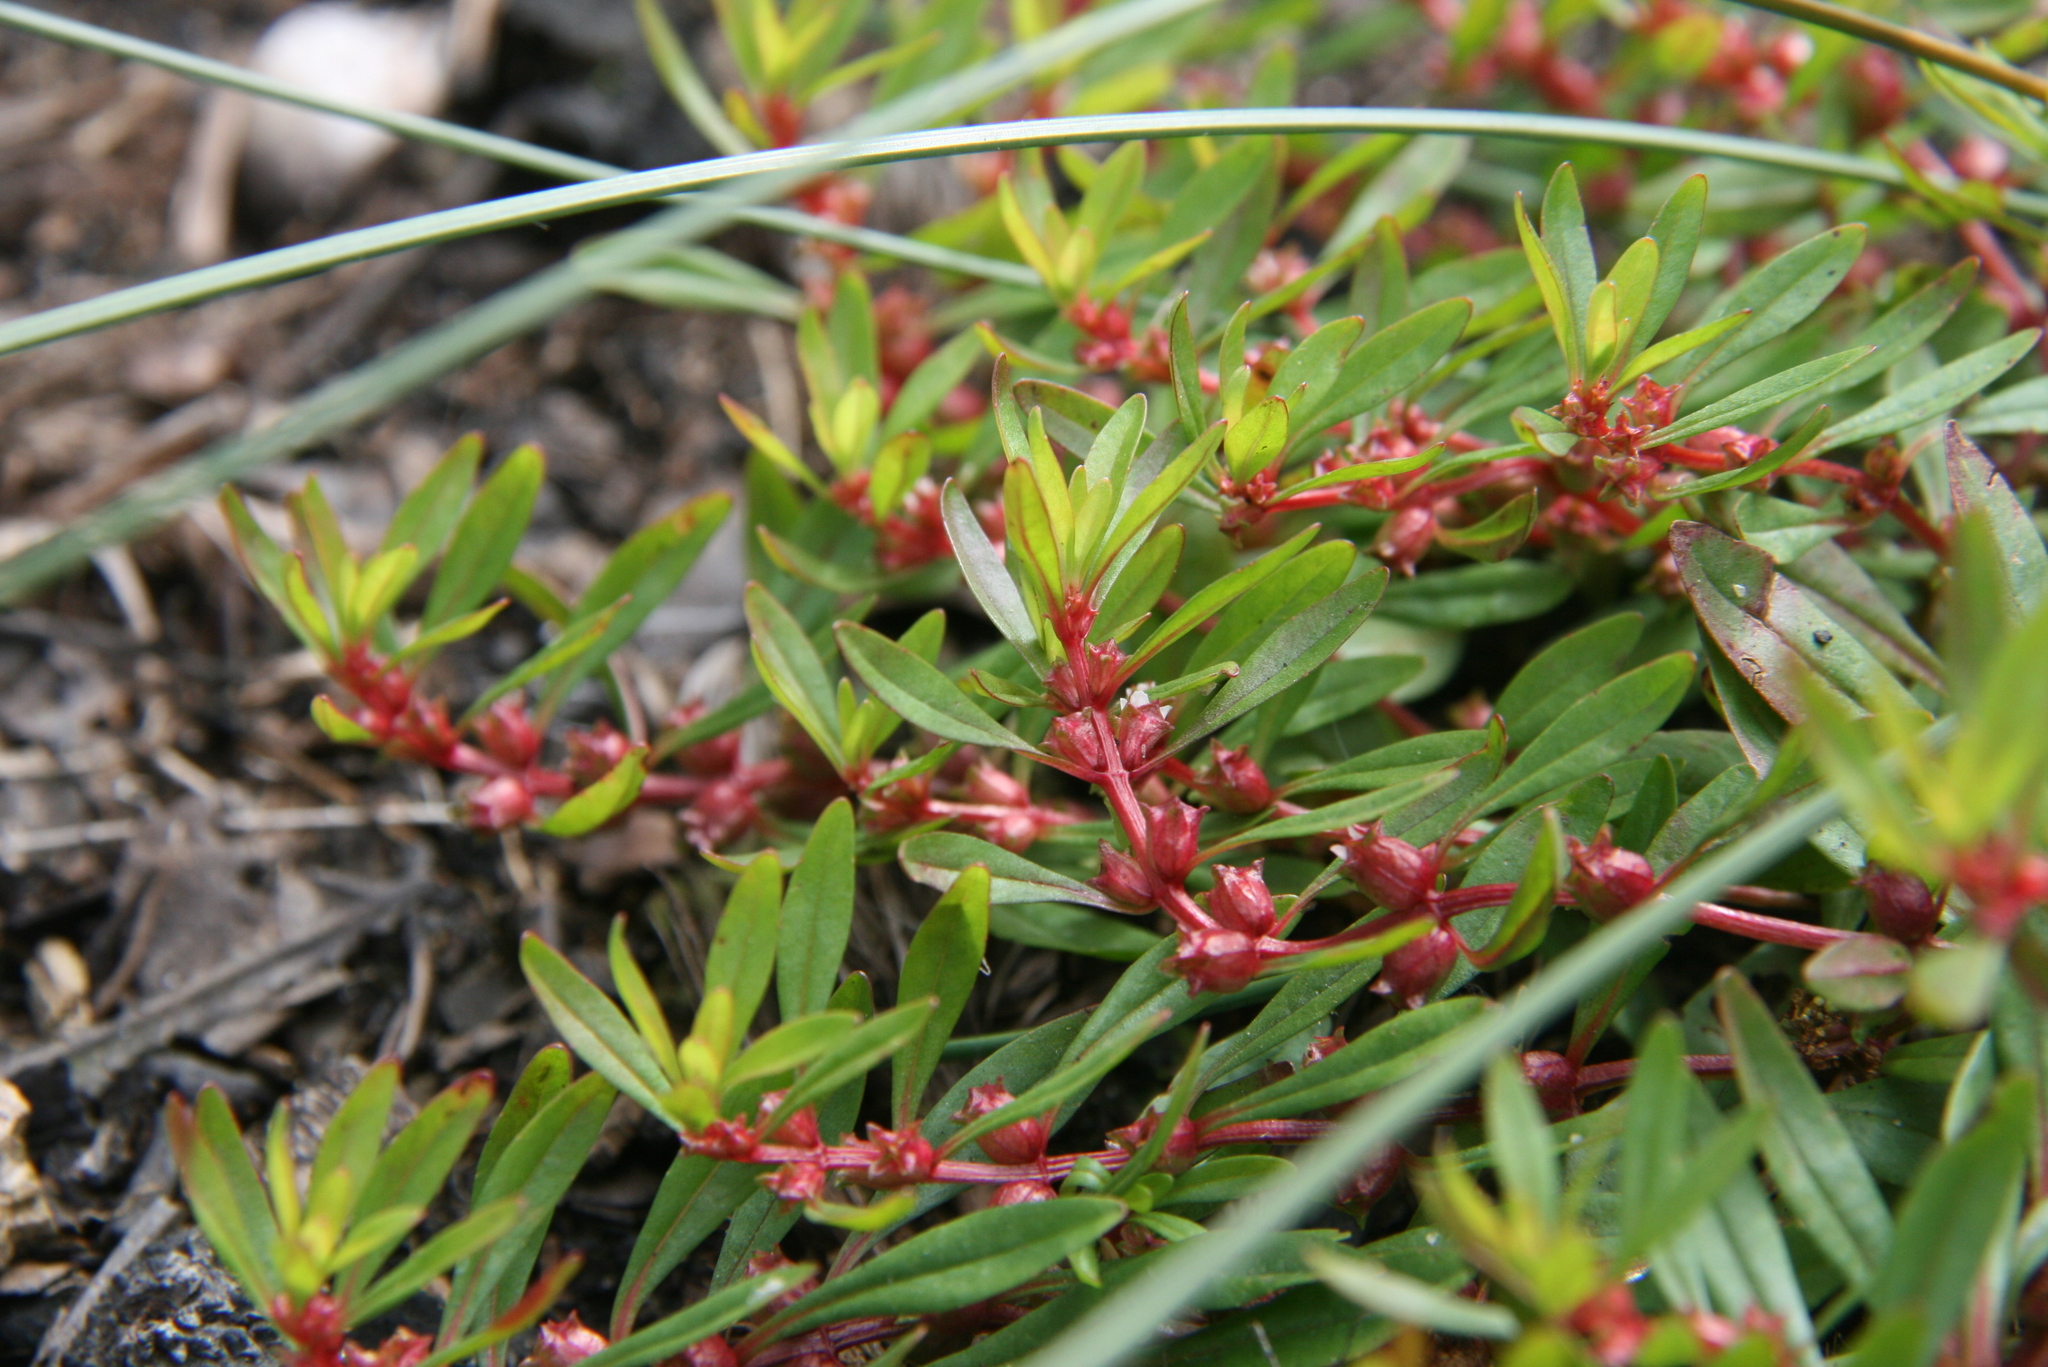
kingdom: Plantae
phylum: Tracheophyta
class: Magnoliopsida
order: Myrtales
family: Lythraceae
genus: Rotala
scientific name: Rotala ramosior
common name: Lowland rotala
